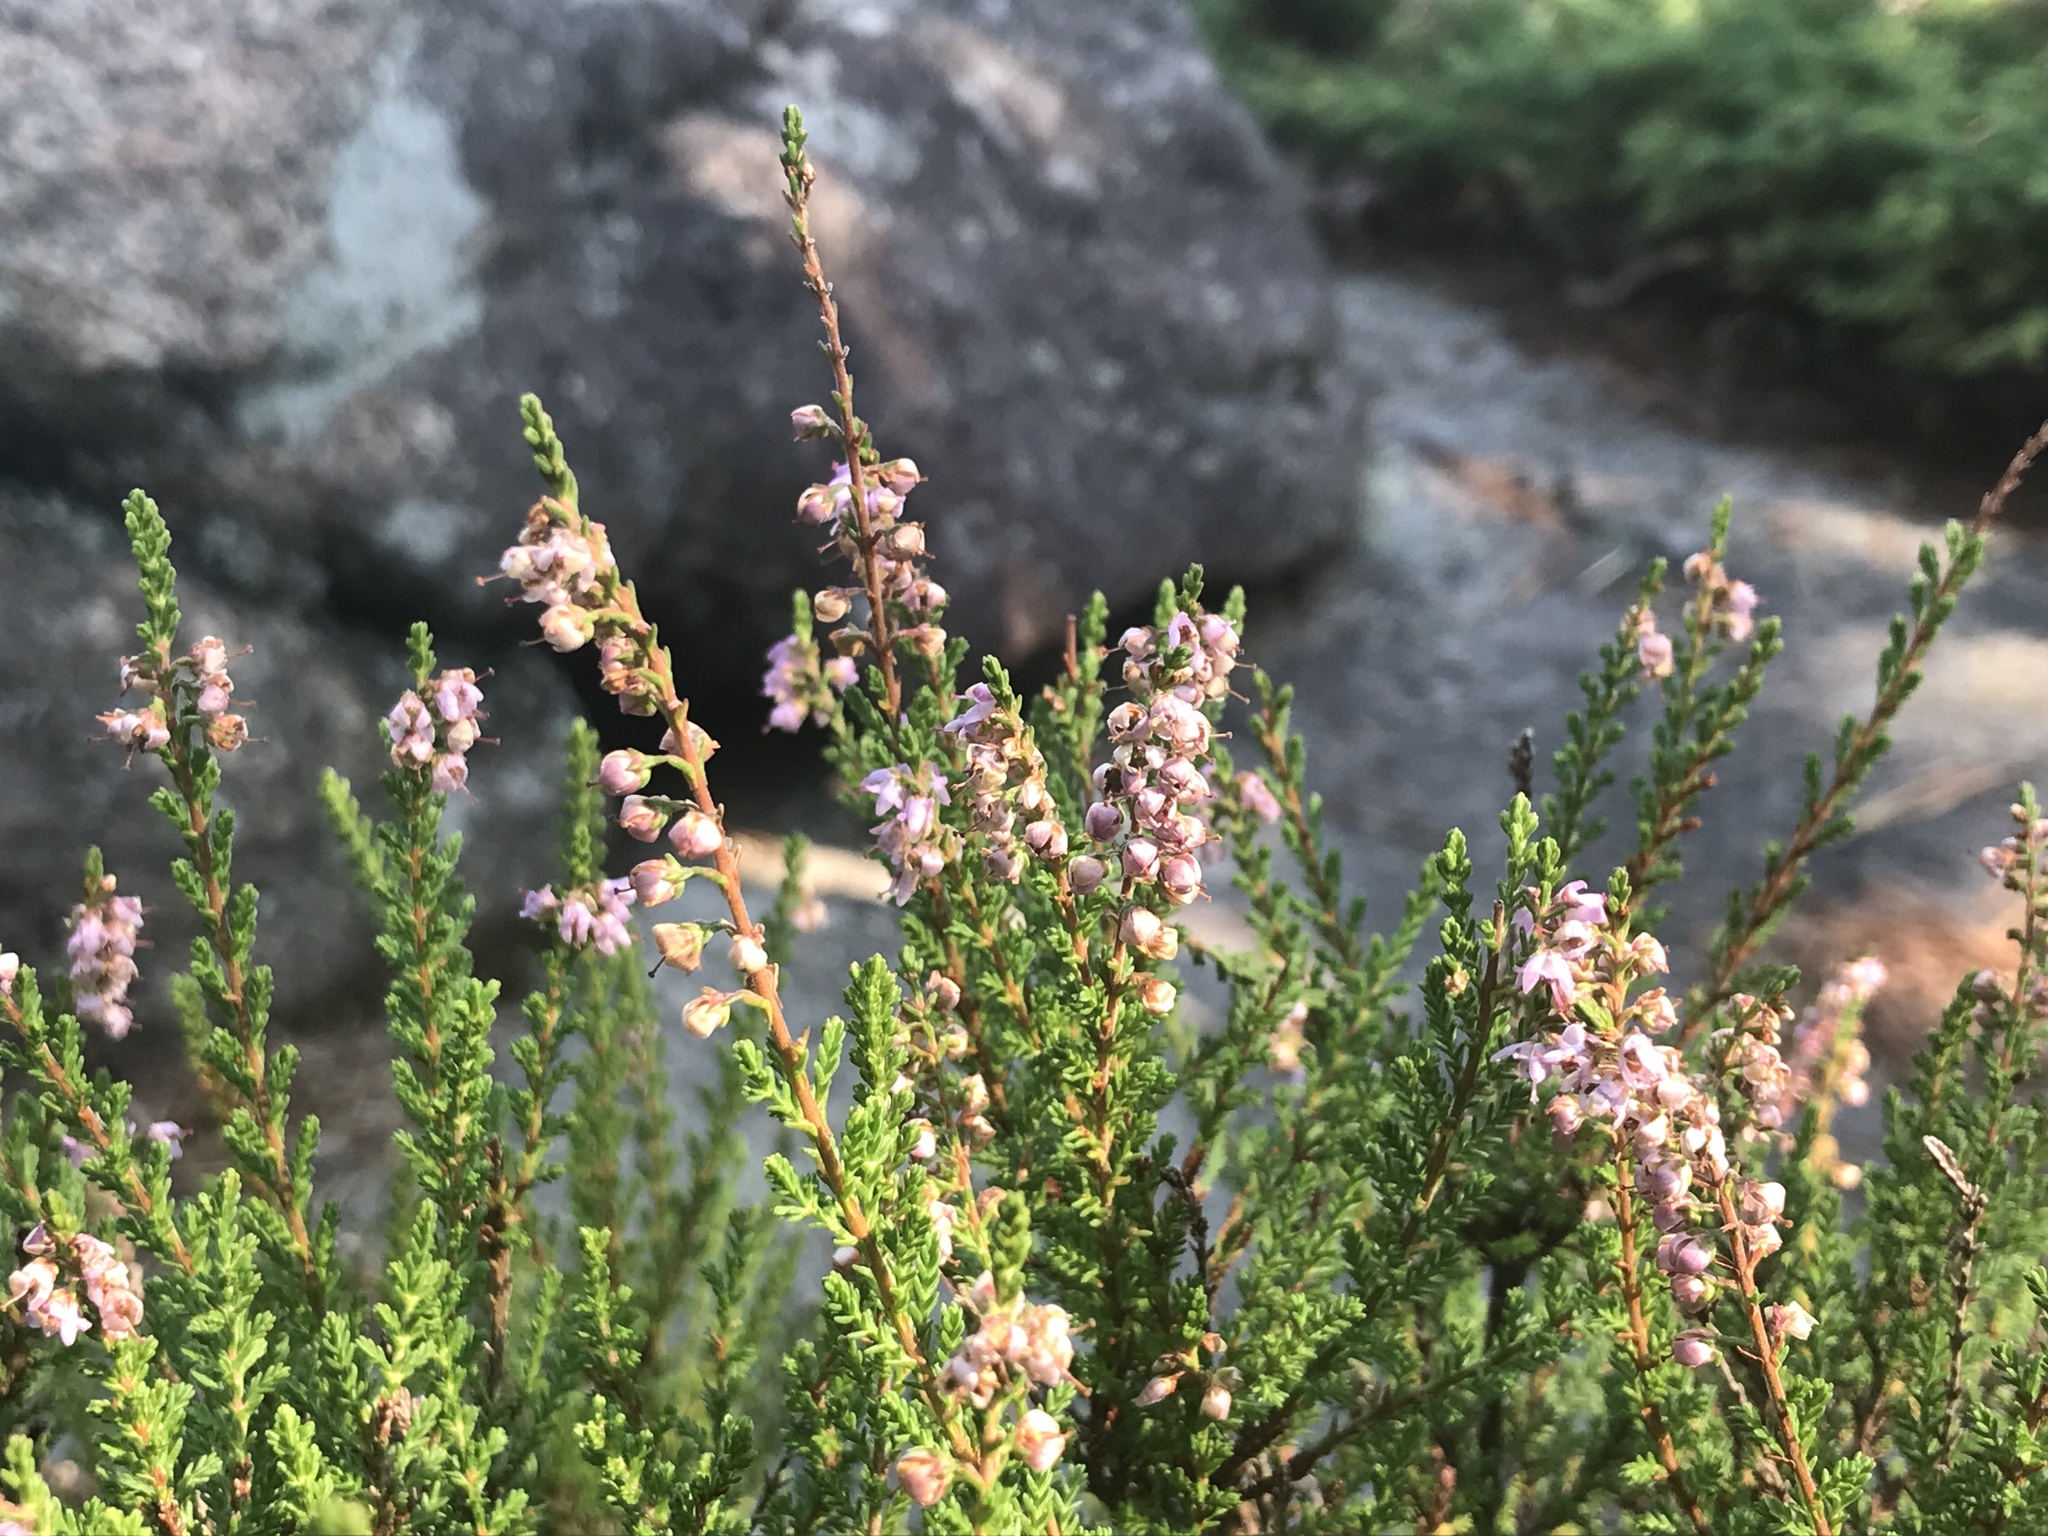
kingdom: Plantae
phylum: Tracheophyta
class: Magnoliopsida
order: Ericales
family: Ericaceae
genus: Calluna
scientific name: Calluna vulgaris
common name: Heather
